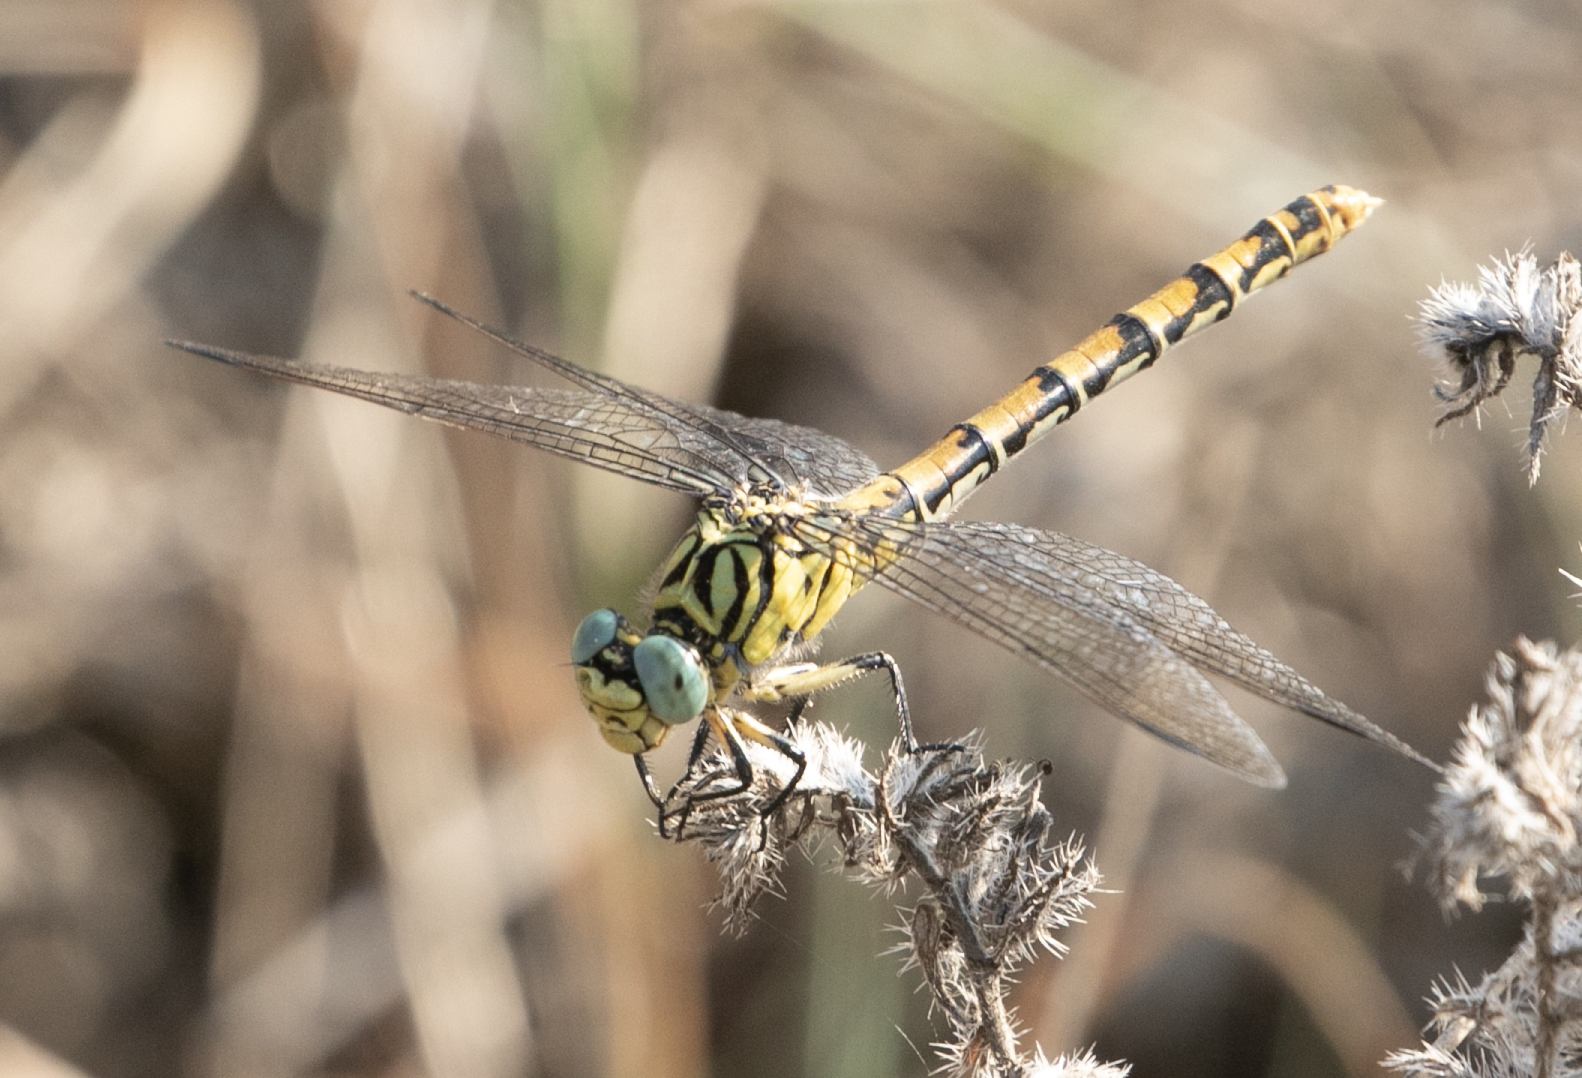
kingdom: Animalia
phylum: Arthropoda
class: Insecta
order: Odonata
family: Gomphidae
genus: Onychogomphus
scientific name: Onychogomphus forcipatus
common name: Small pincertail
